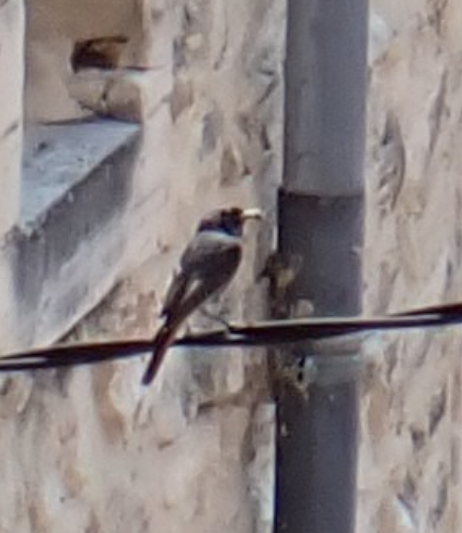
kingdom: Animalia
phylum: Chordata
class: Aves
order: Passeriformes
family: Muscicapidae
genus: Phoenicurus
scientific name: Phoenicurus ochruros
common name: Black redstart
